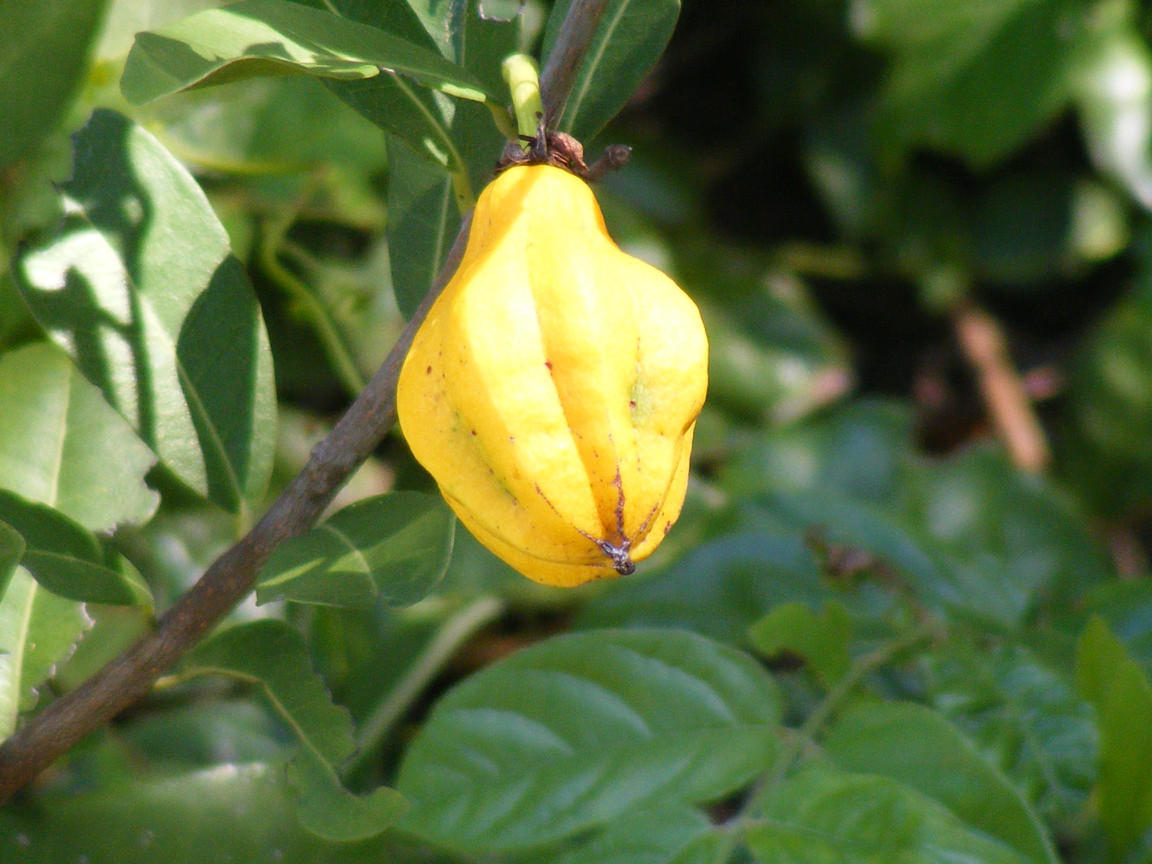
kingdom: Plantae
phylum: Tracheophyta
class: Magnoliopsida
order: Malpighiales
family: Achariaceae
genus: Xylotheca
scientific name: Xylotheca kraussiana
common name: African dog rose
